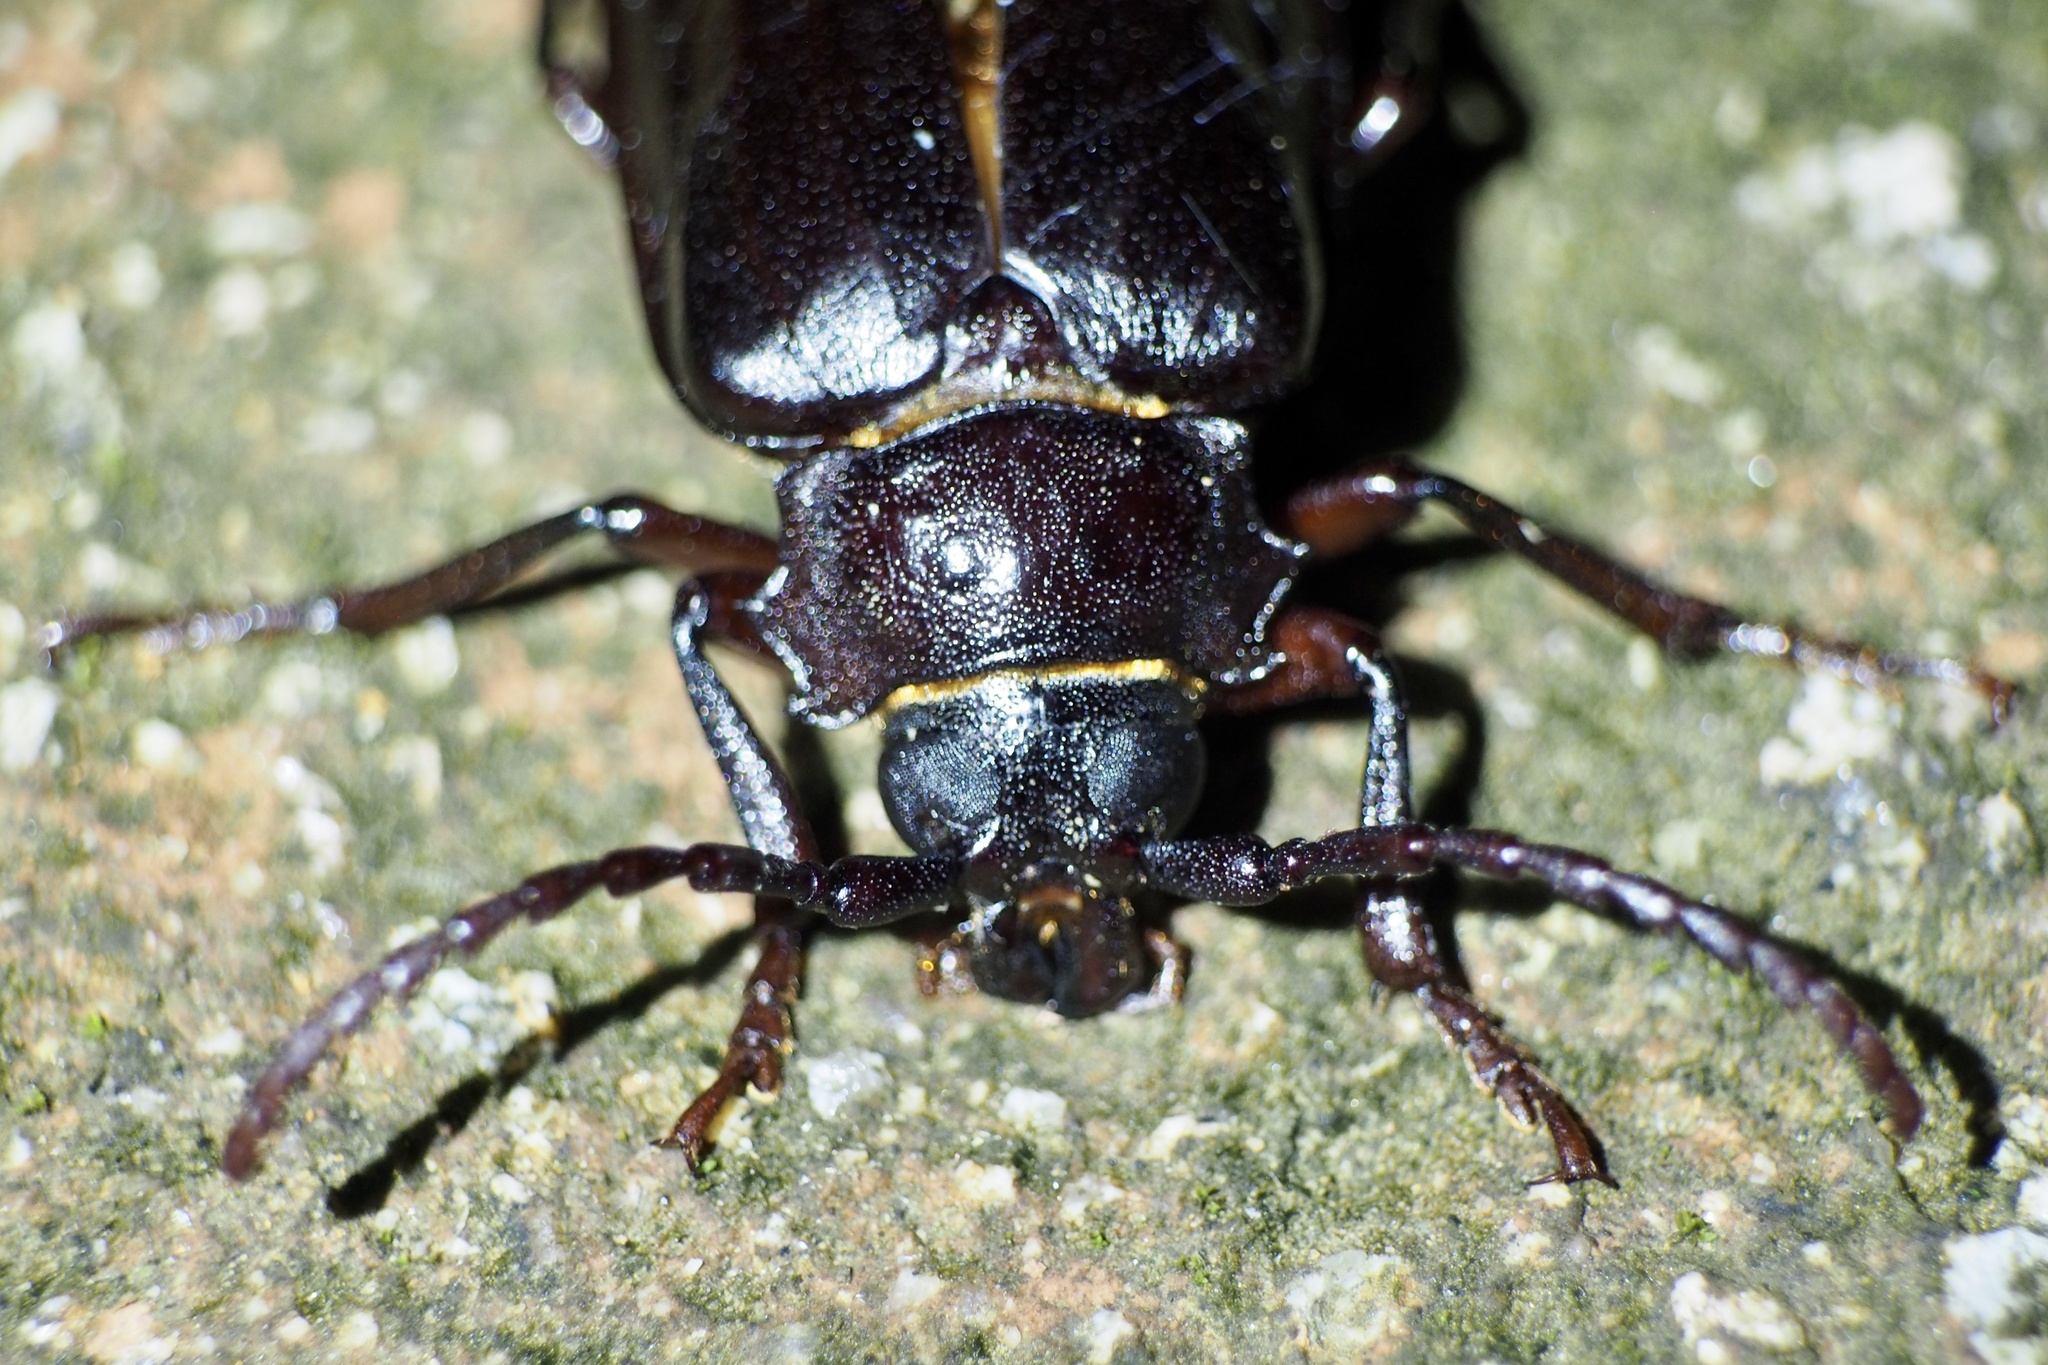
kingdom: Animalia
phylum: Arthropoda
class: Insecta
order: Coleoptera
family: Cerambycidae
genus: Prionus
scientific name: Prionus sejunctus
